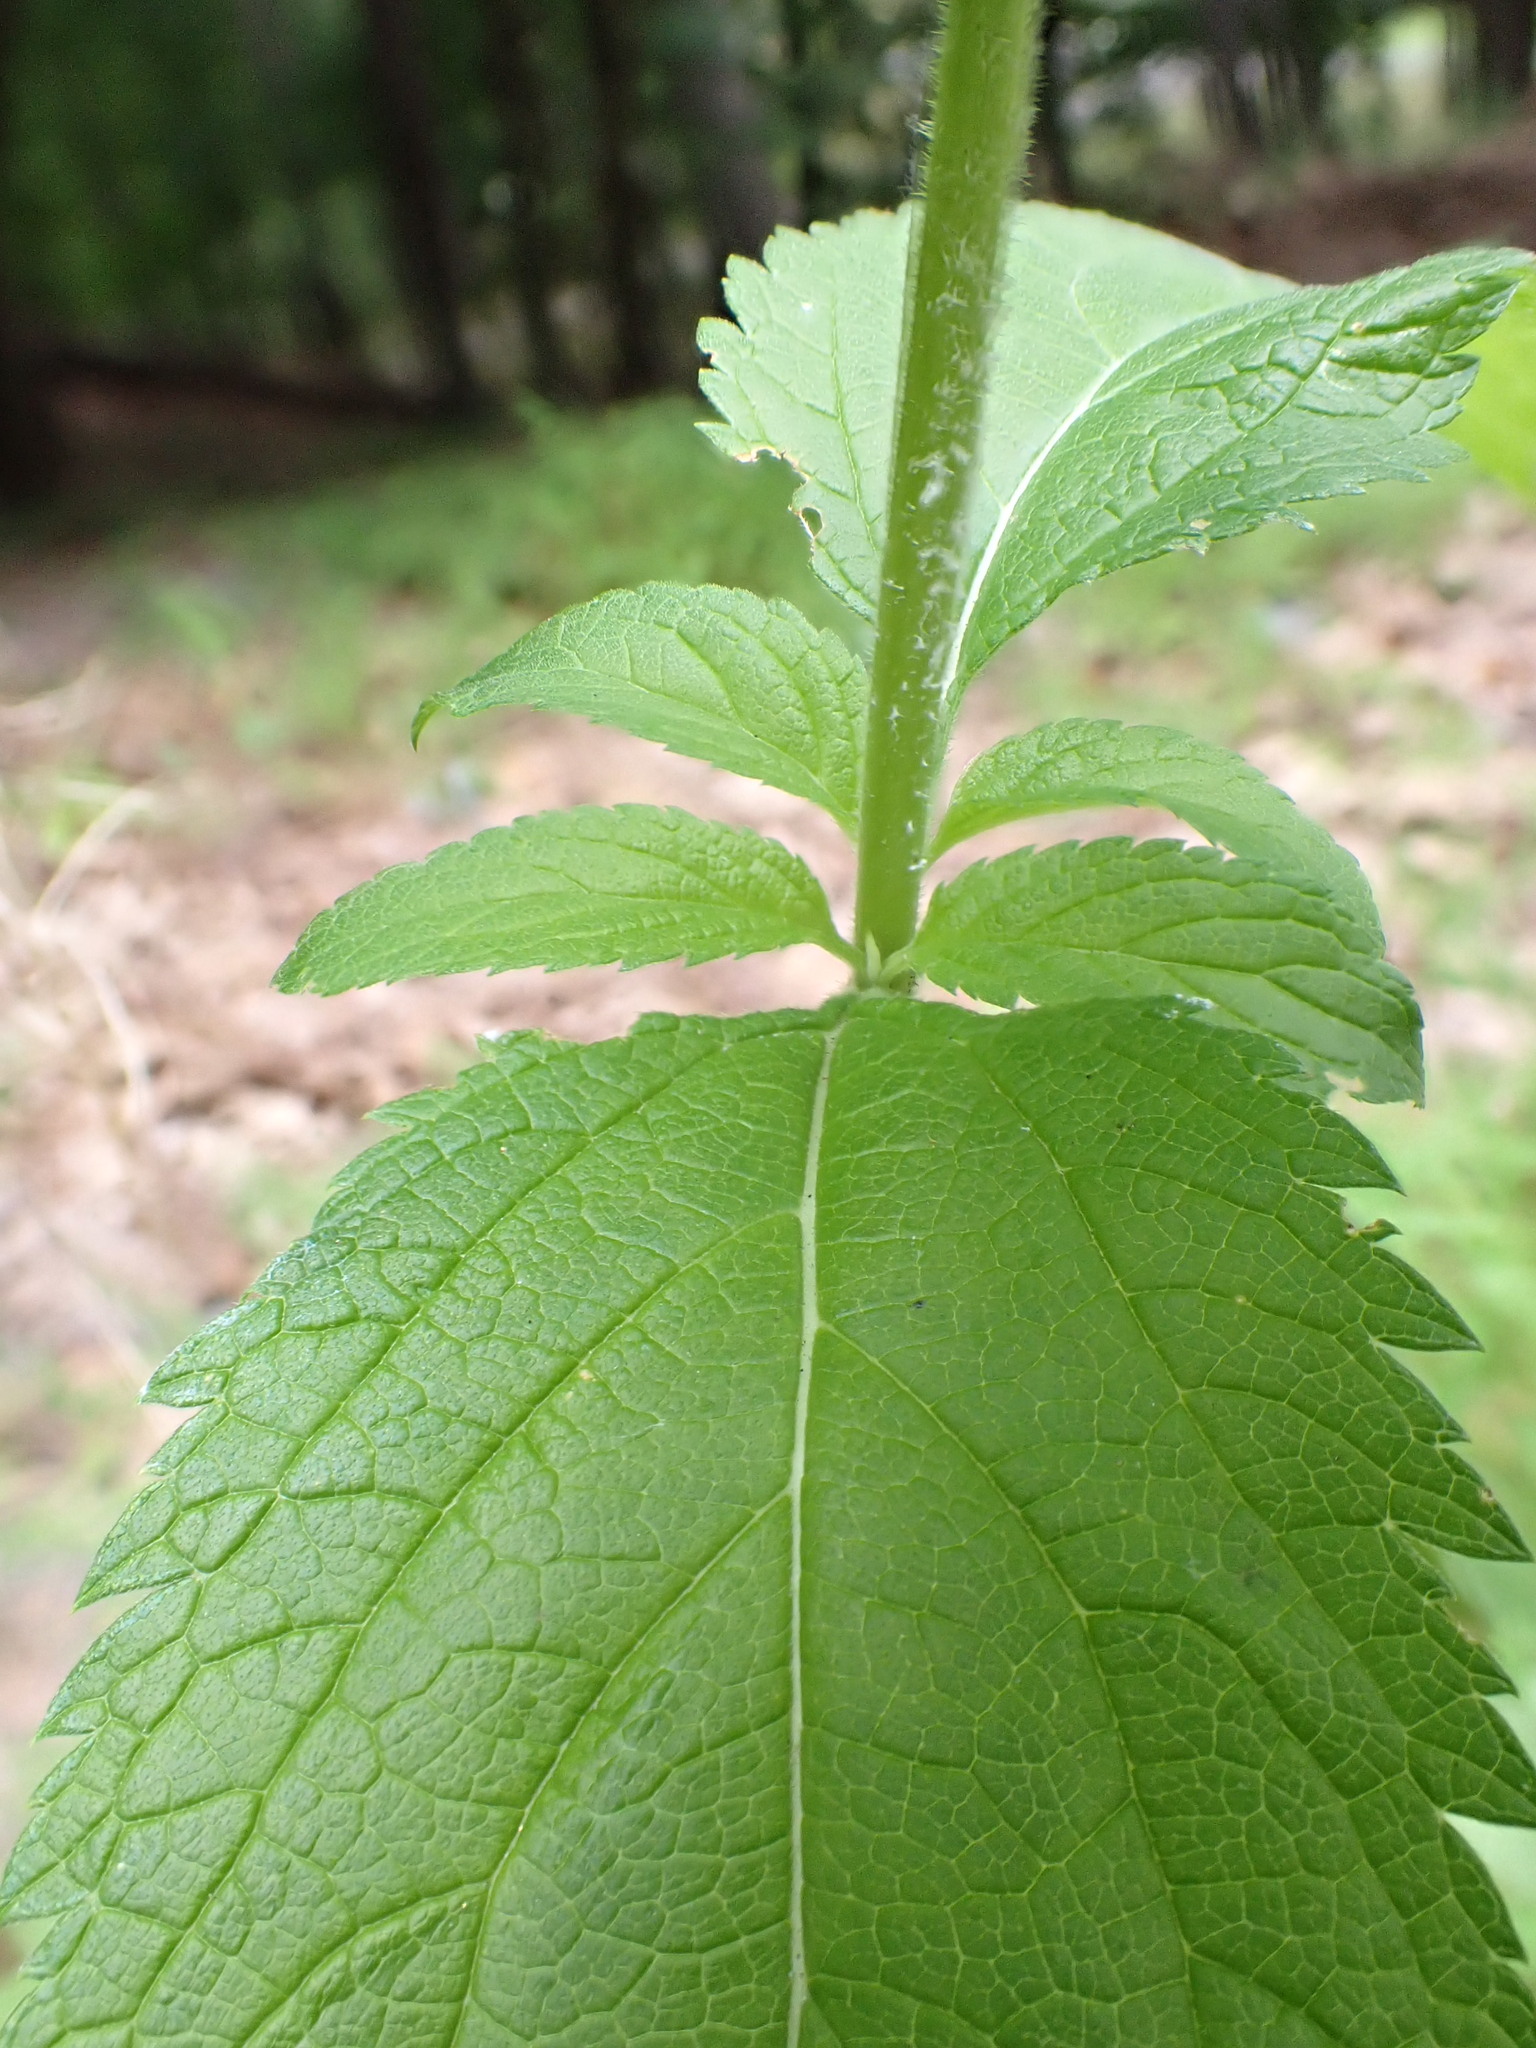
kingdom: Plantae
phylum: Tracheophyta
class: Magnoliopsida
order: Lamiales
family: Verbenaceae
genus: Verbena
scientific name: Verbena hastata
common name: American blue vervain
